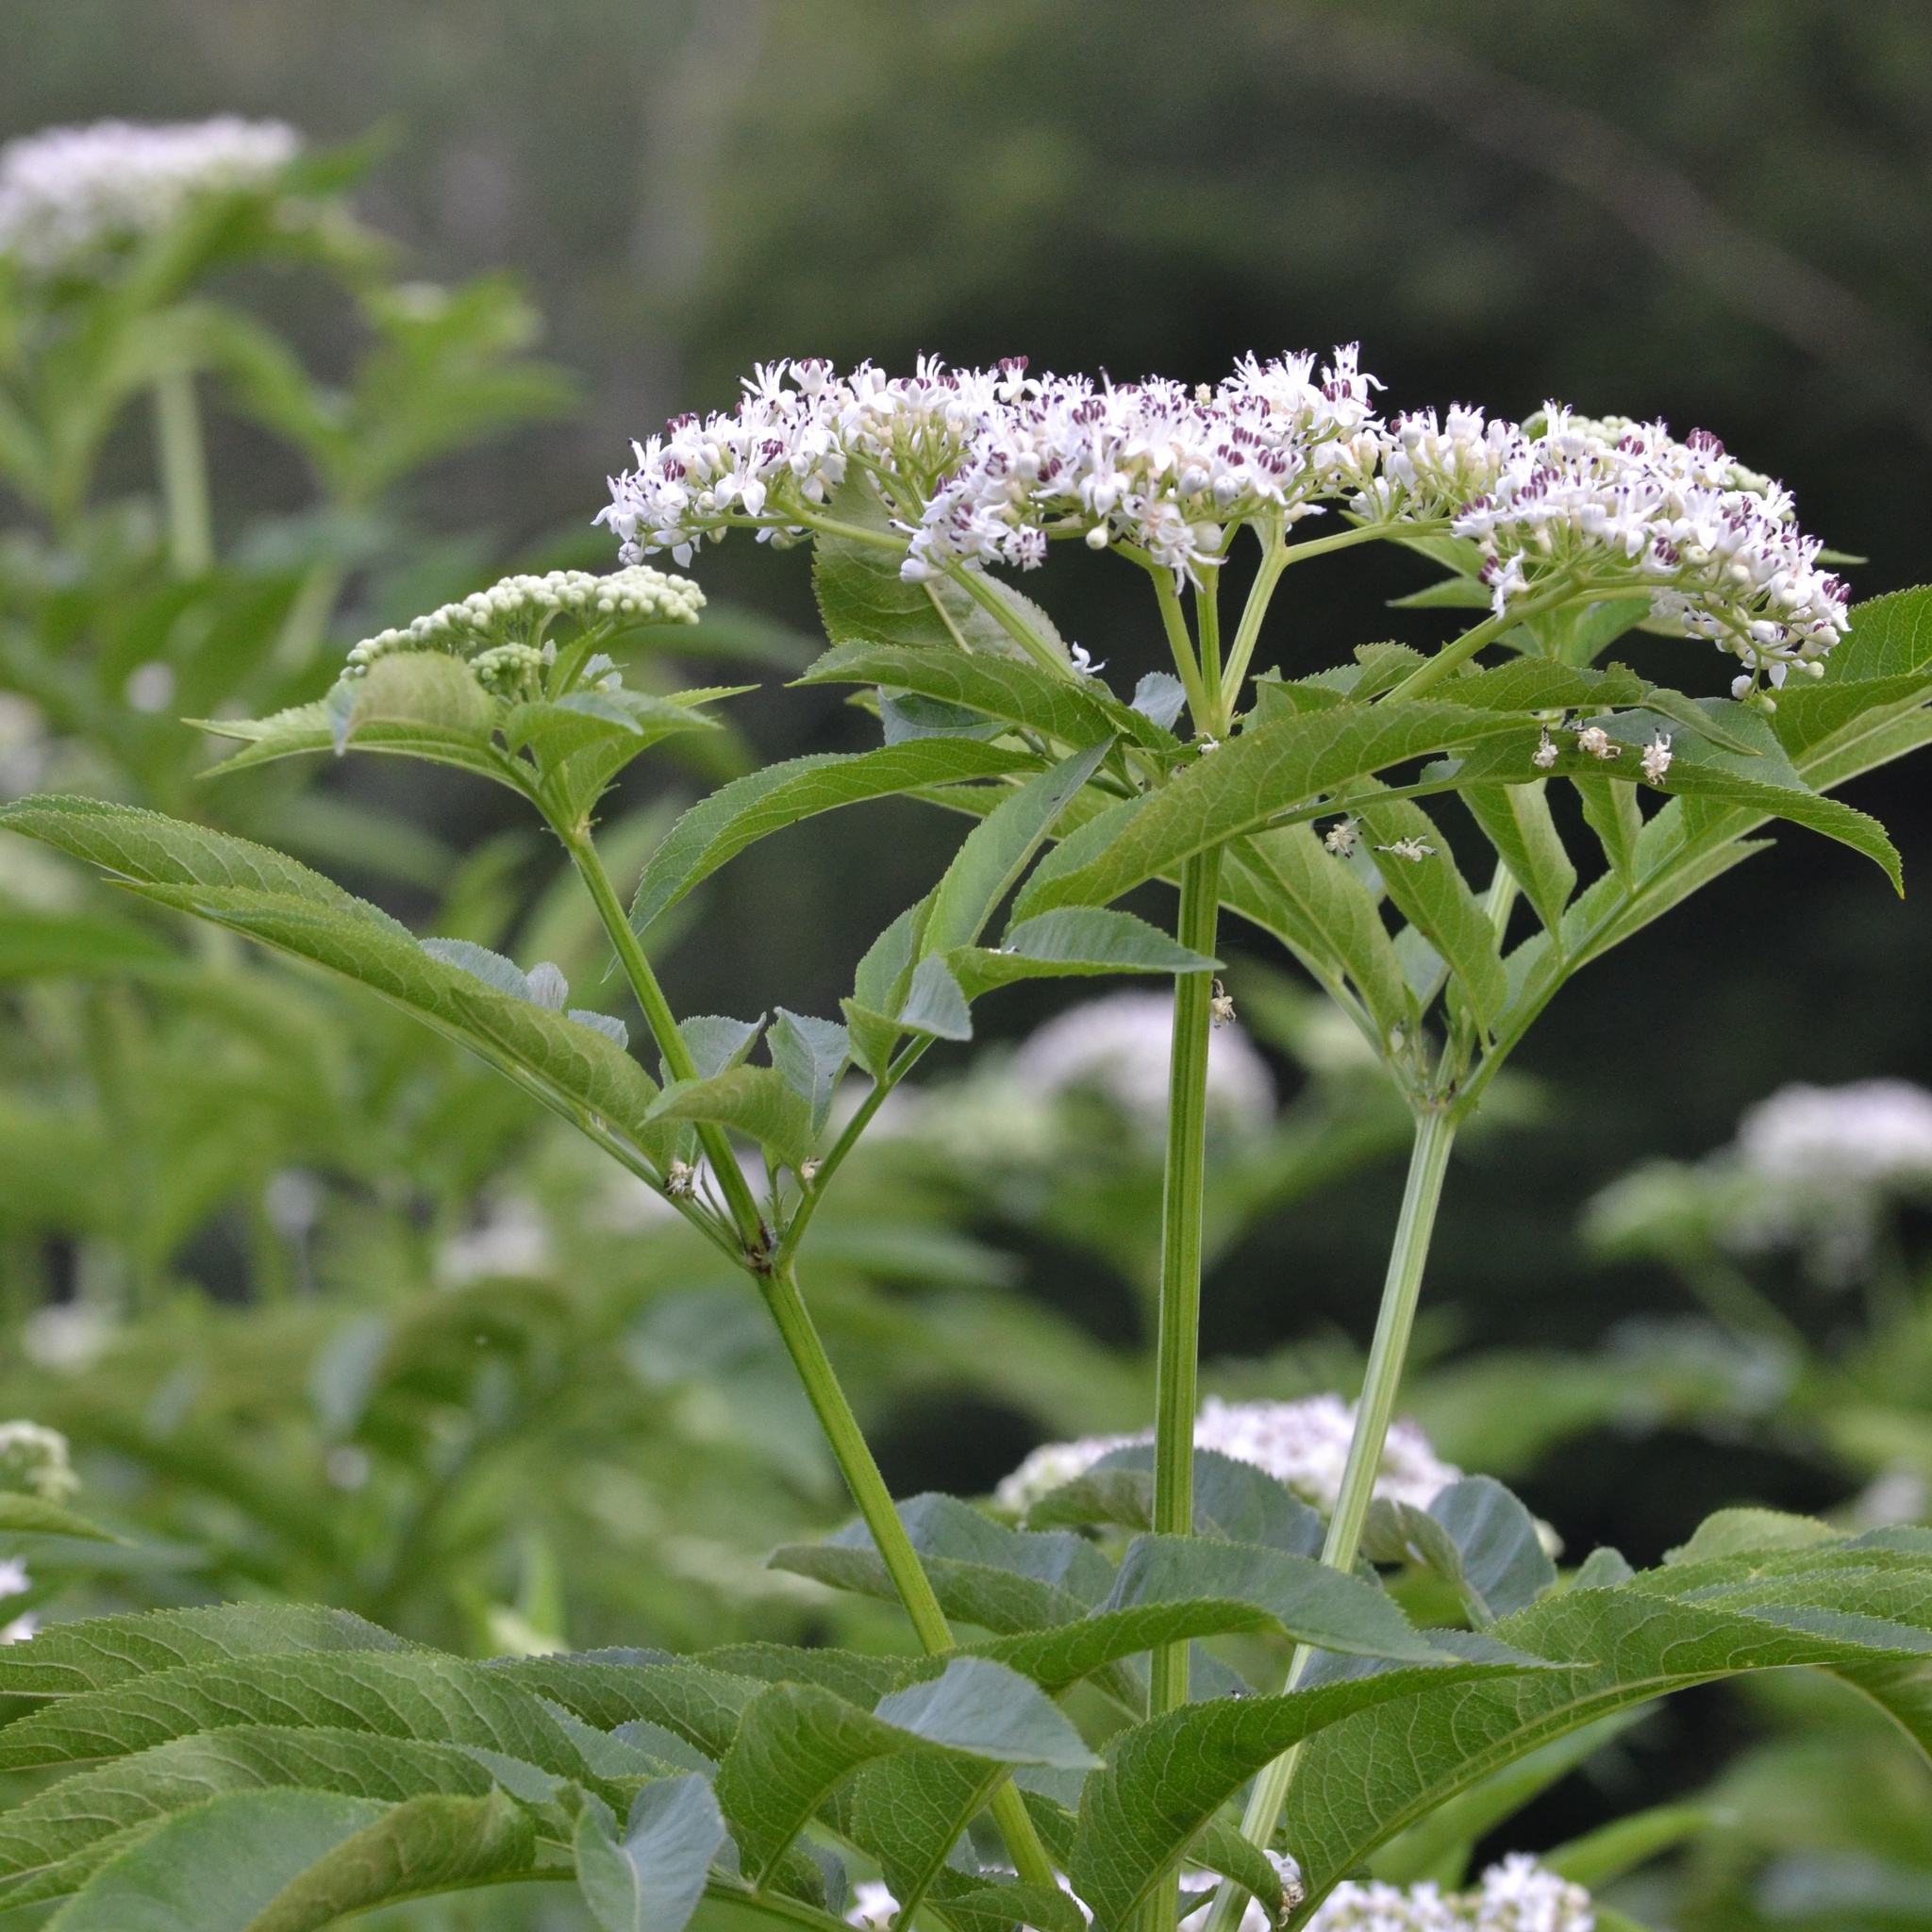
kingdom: Plantae
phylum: Tracheophyta
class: Magnoliopsida
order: Dipsacales
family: Viburnaceae
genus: Sambucus
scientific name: Sambucus ebulus
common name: Dwarf elder
